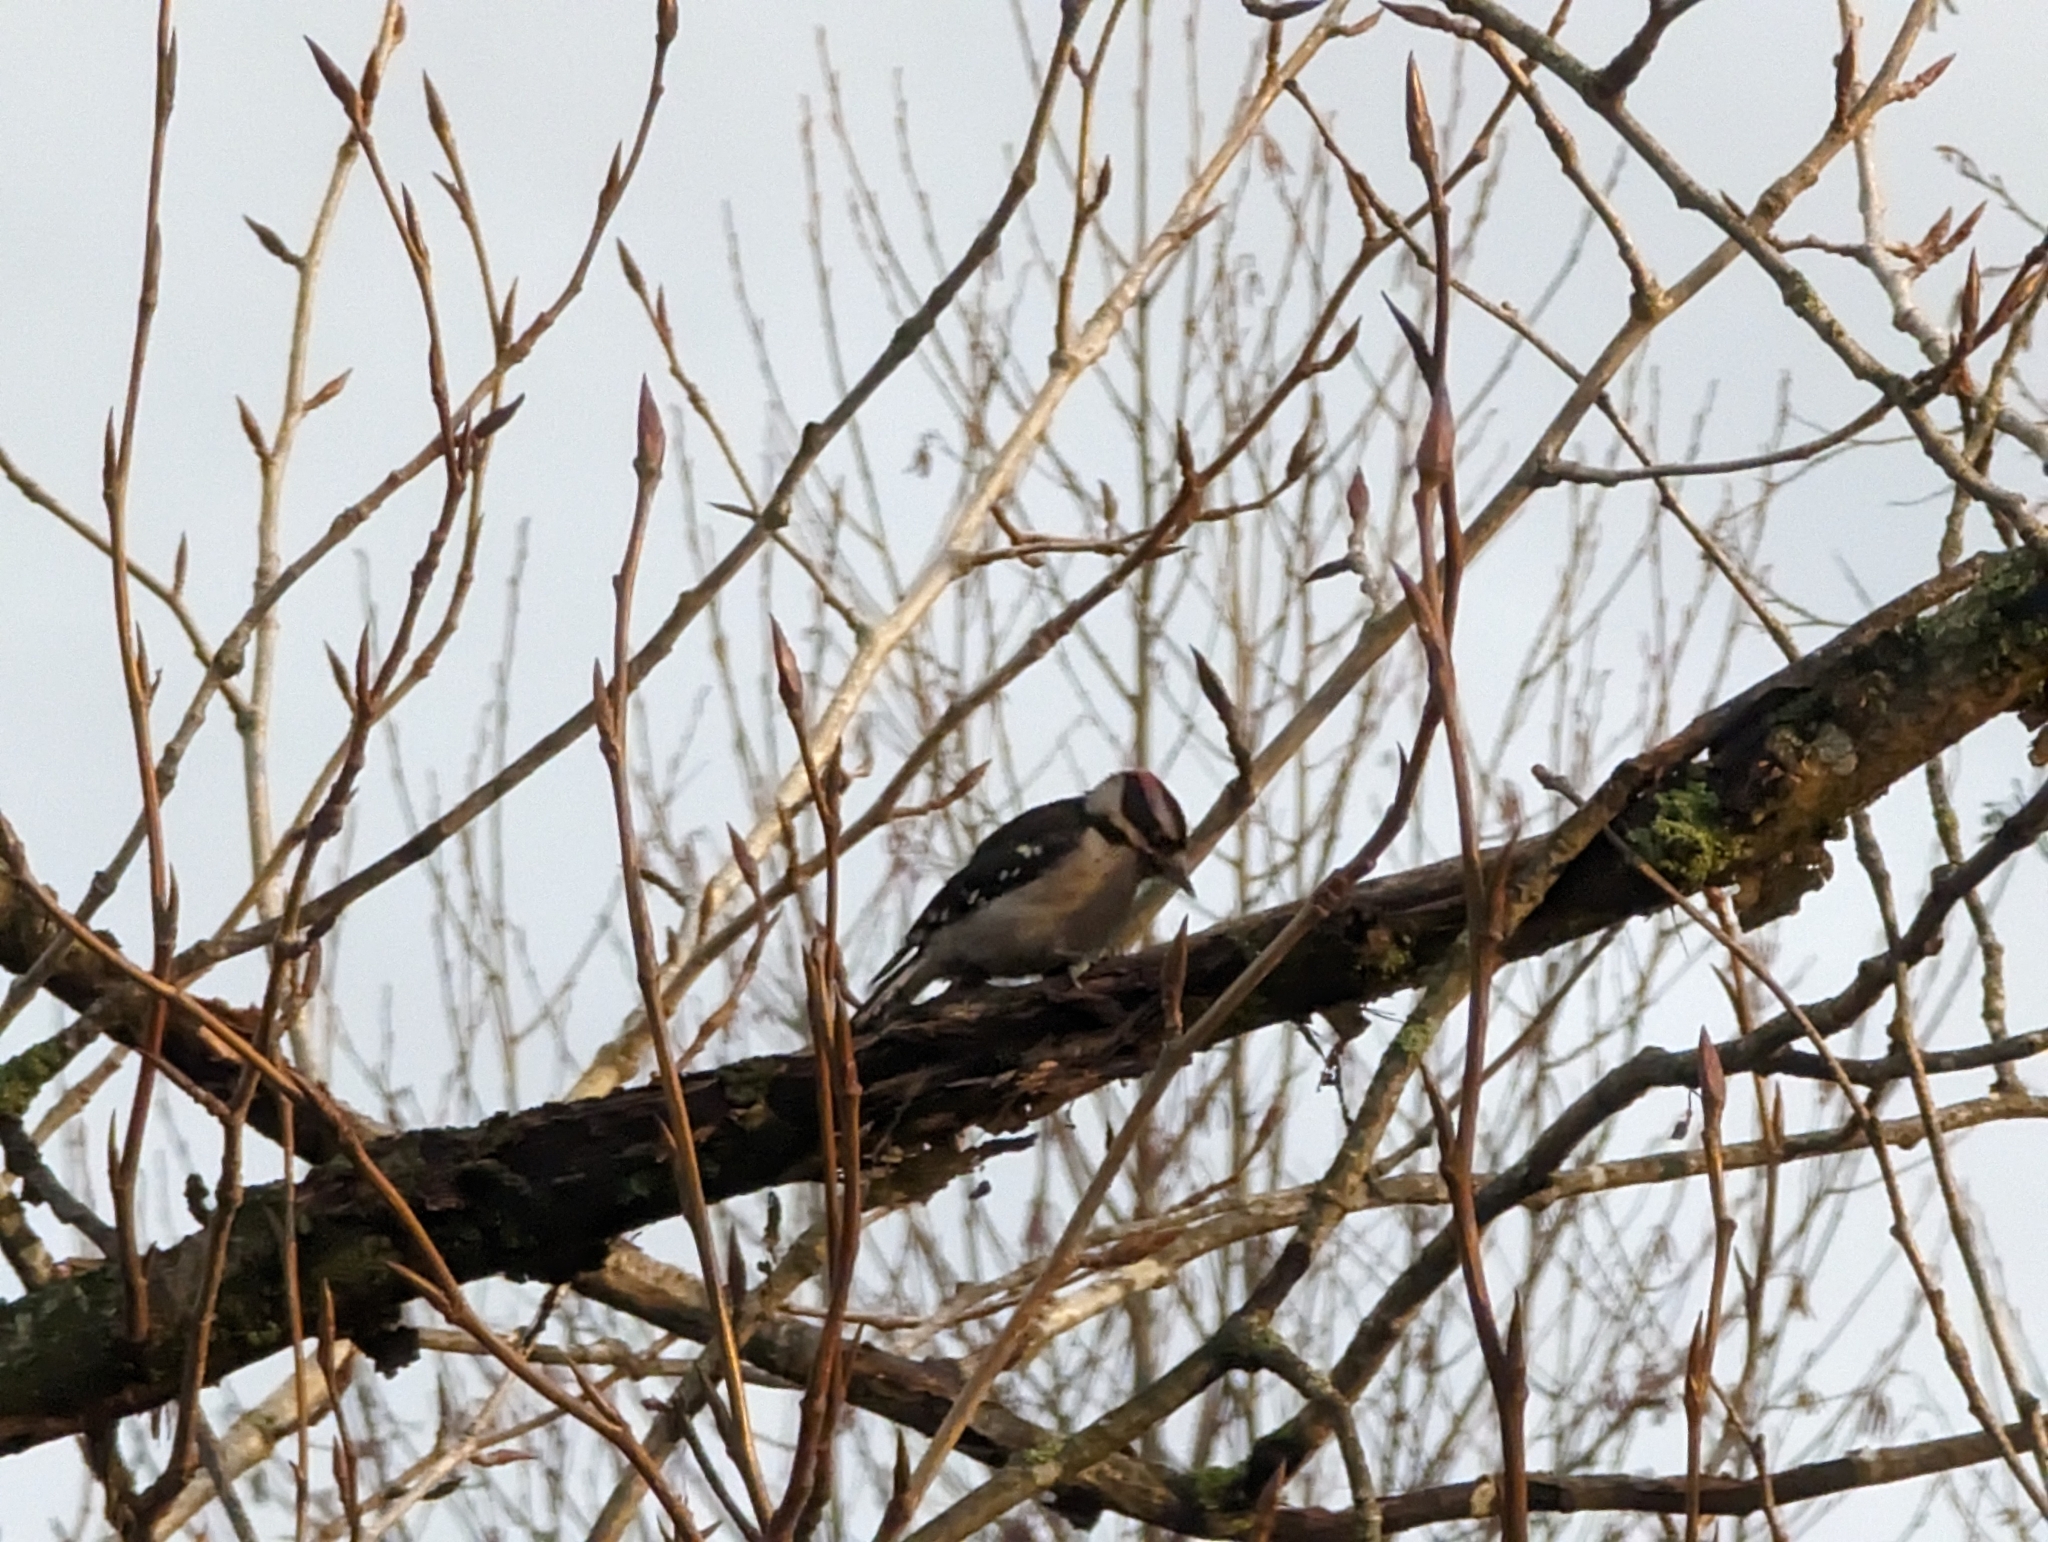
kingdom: Animalia
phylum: Chordata
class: Aves
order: Piciformes
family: Picidae
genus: Dryobates
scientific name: Dryobates pubescens
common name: Downy woodpecker
